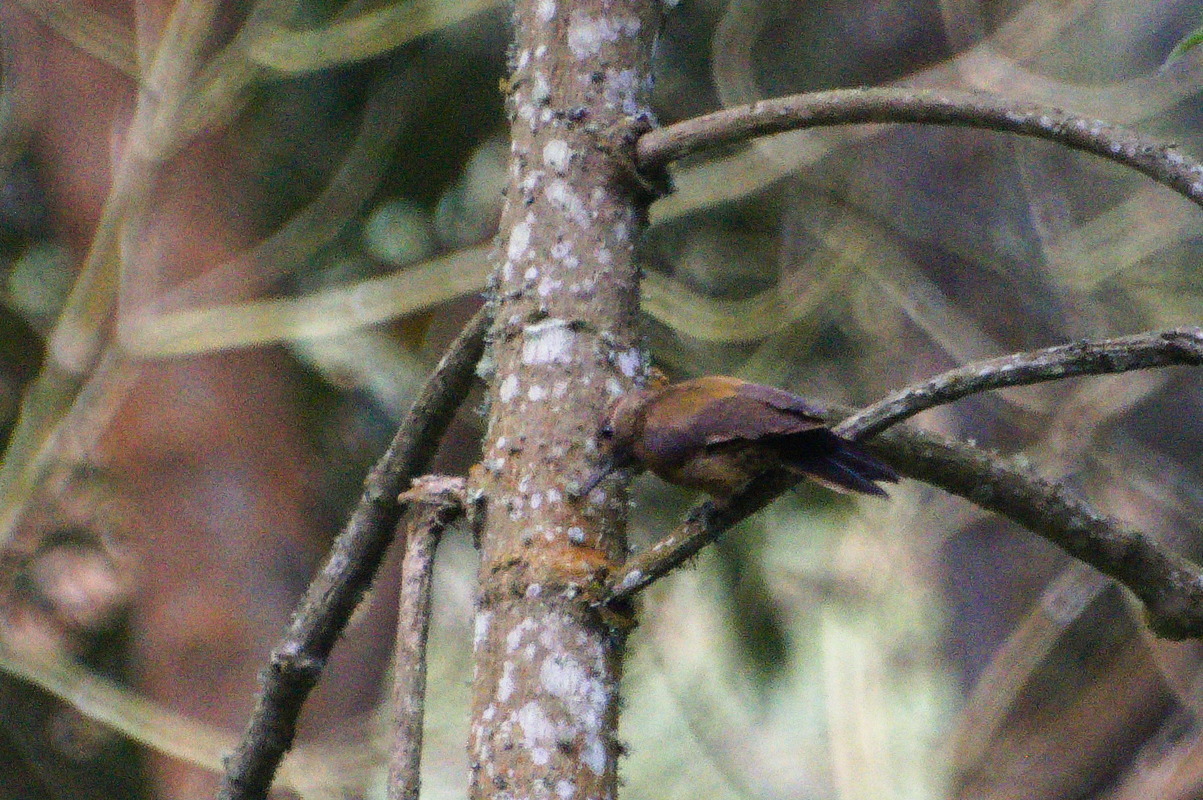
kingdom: Animalia
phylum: Chordata
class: Aves
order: Piciformes
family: Picidae
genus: Leuconotopicus
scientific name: Leuconotopicus fumigatus
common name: Smoky-brown woodpecker
